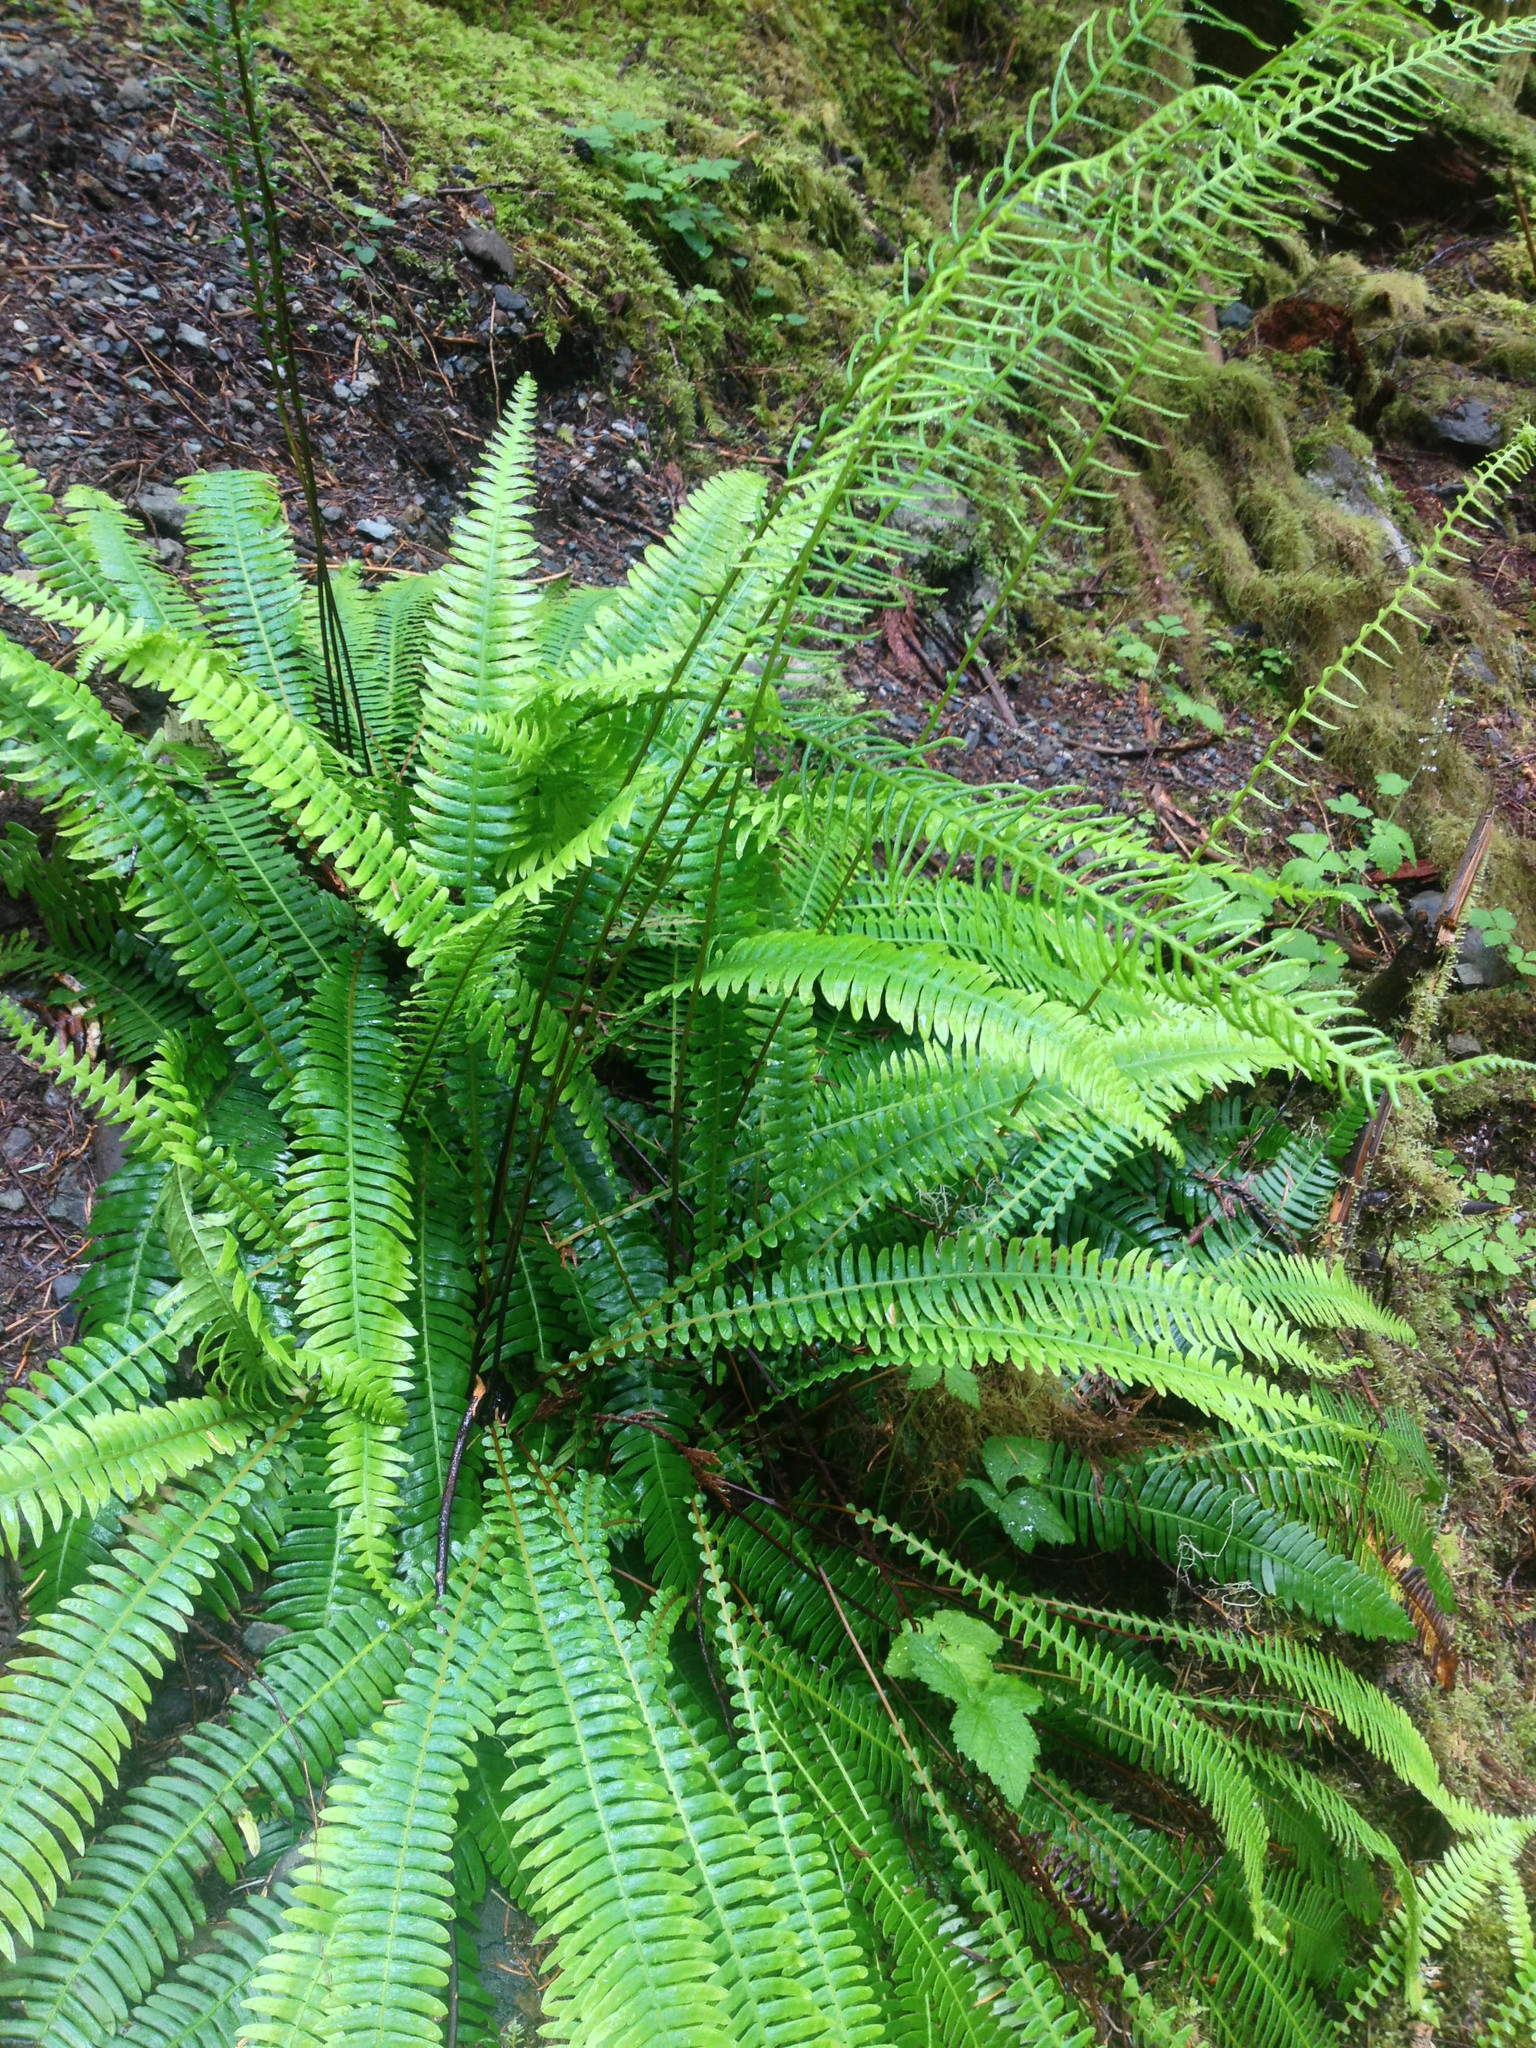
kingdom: Plantae
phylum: Tracheophyta
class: Polypodiopsida
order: Polypodiales
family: Blechnaceae
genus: Struthiopteris
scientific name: Struthiopteris spicant
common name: Deer fern
